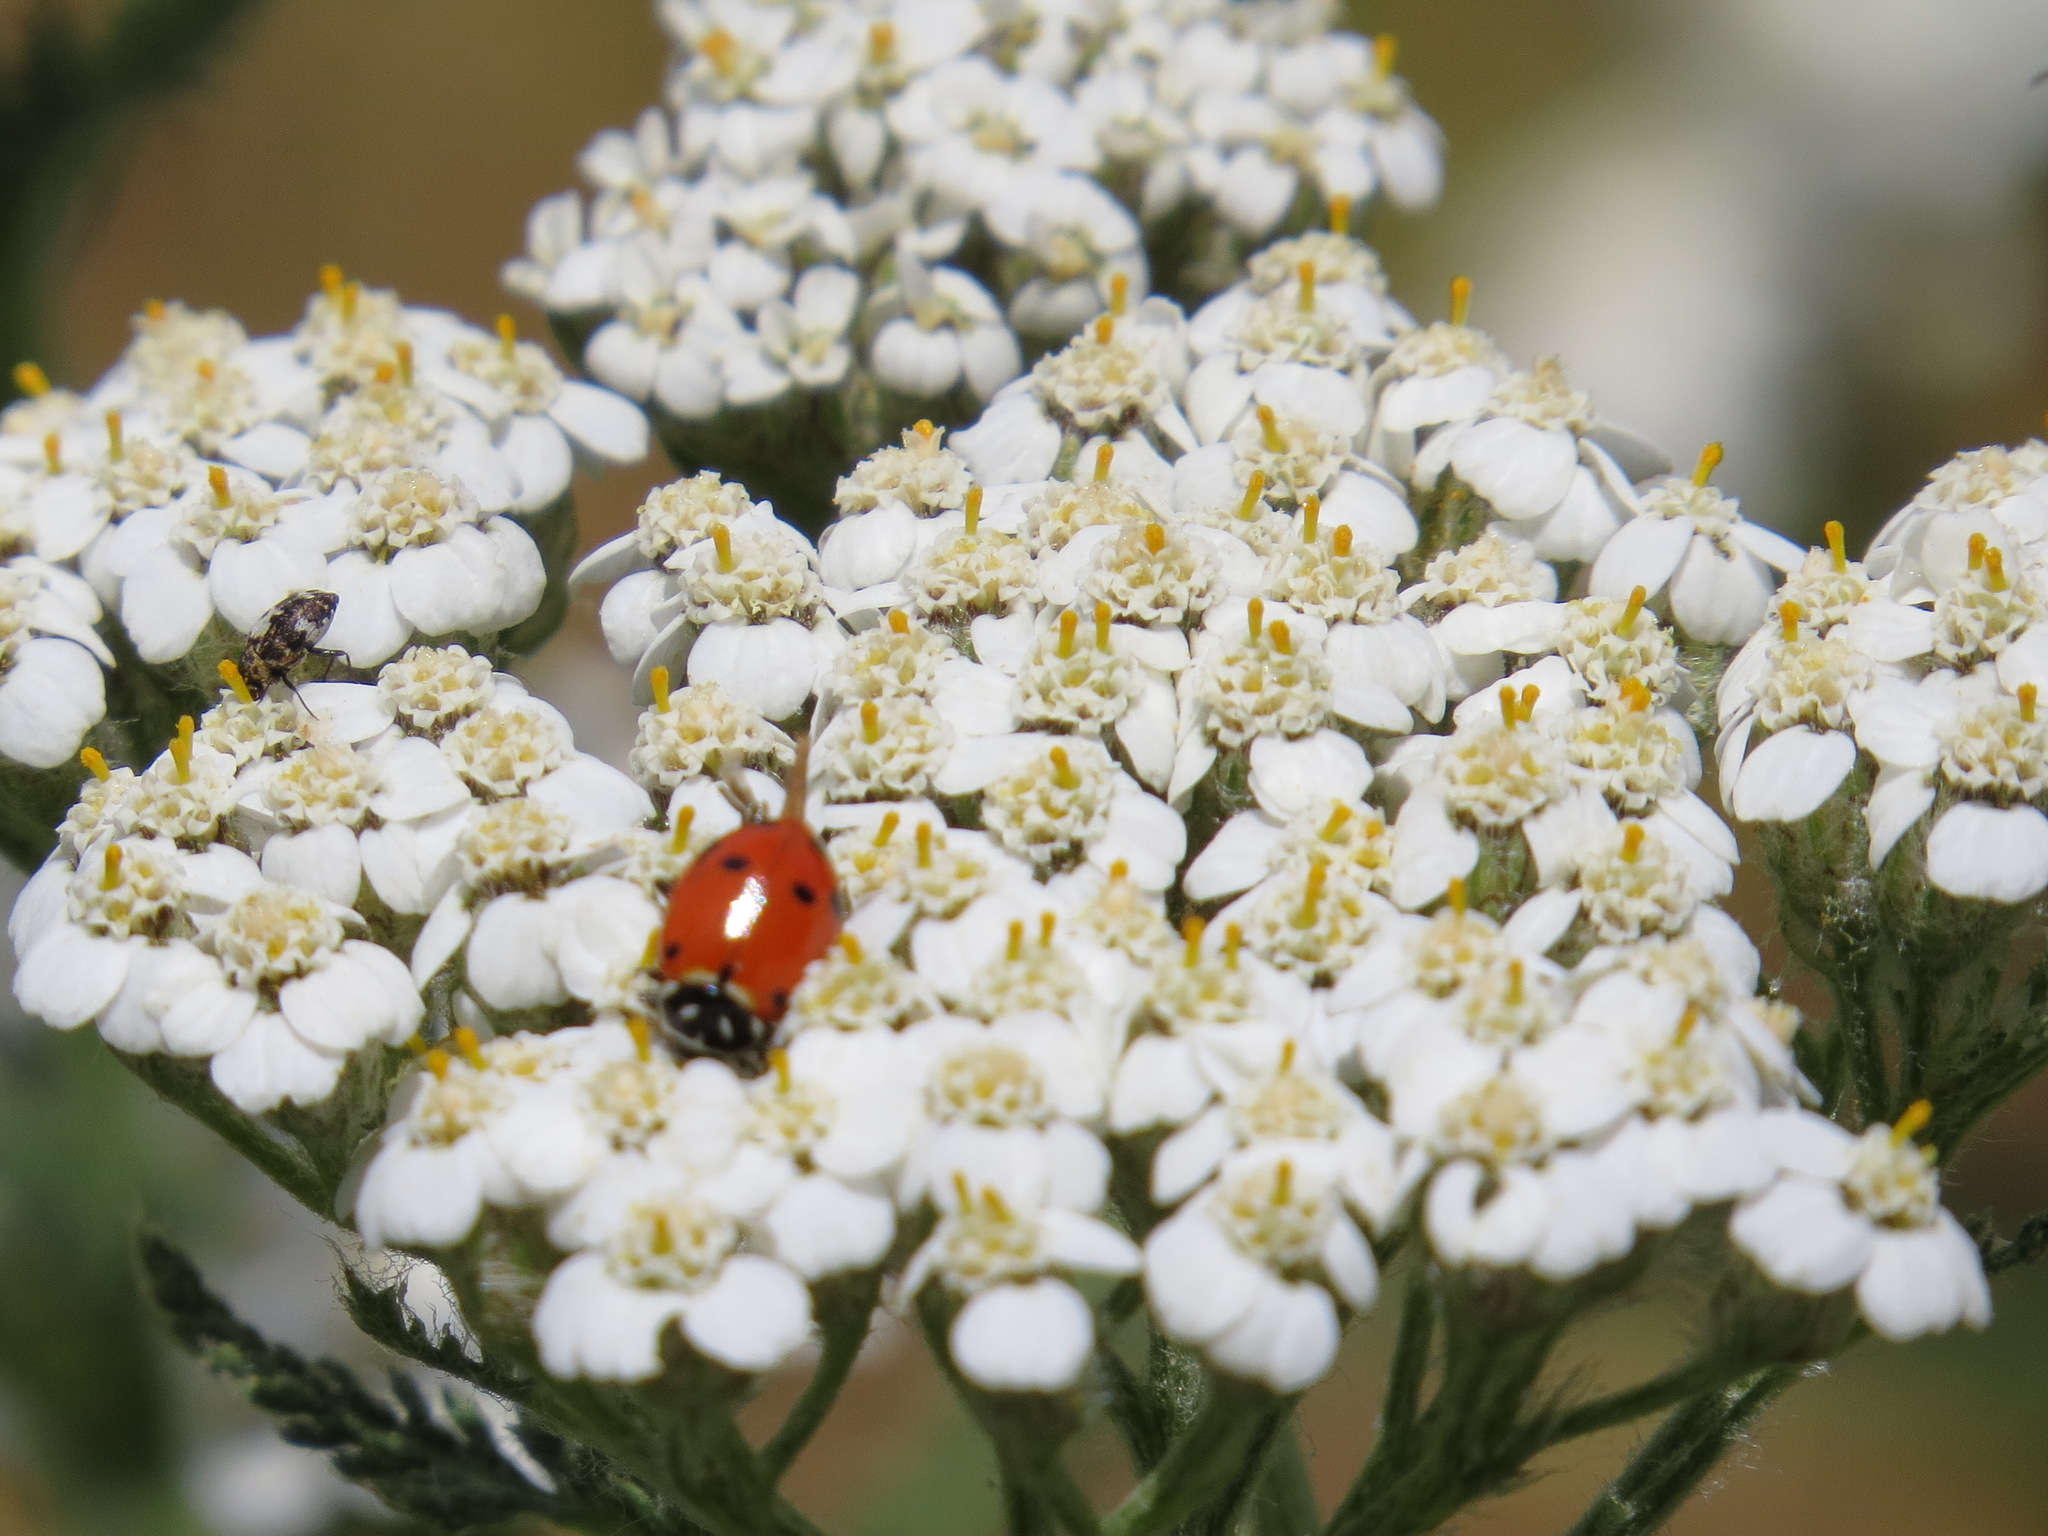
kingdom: Animalia
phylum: Arthropoda
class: Insecta
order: Coleoptera
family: Coccinellidae
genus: Hippodamia
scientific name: Hippodamia convergens
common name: Convergent lady beetle
